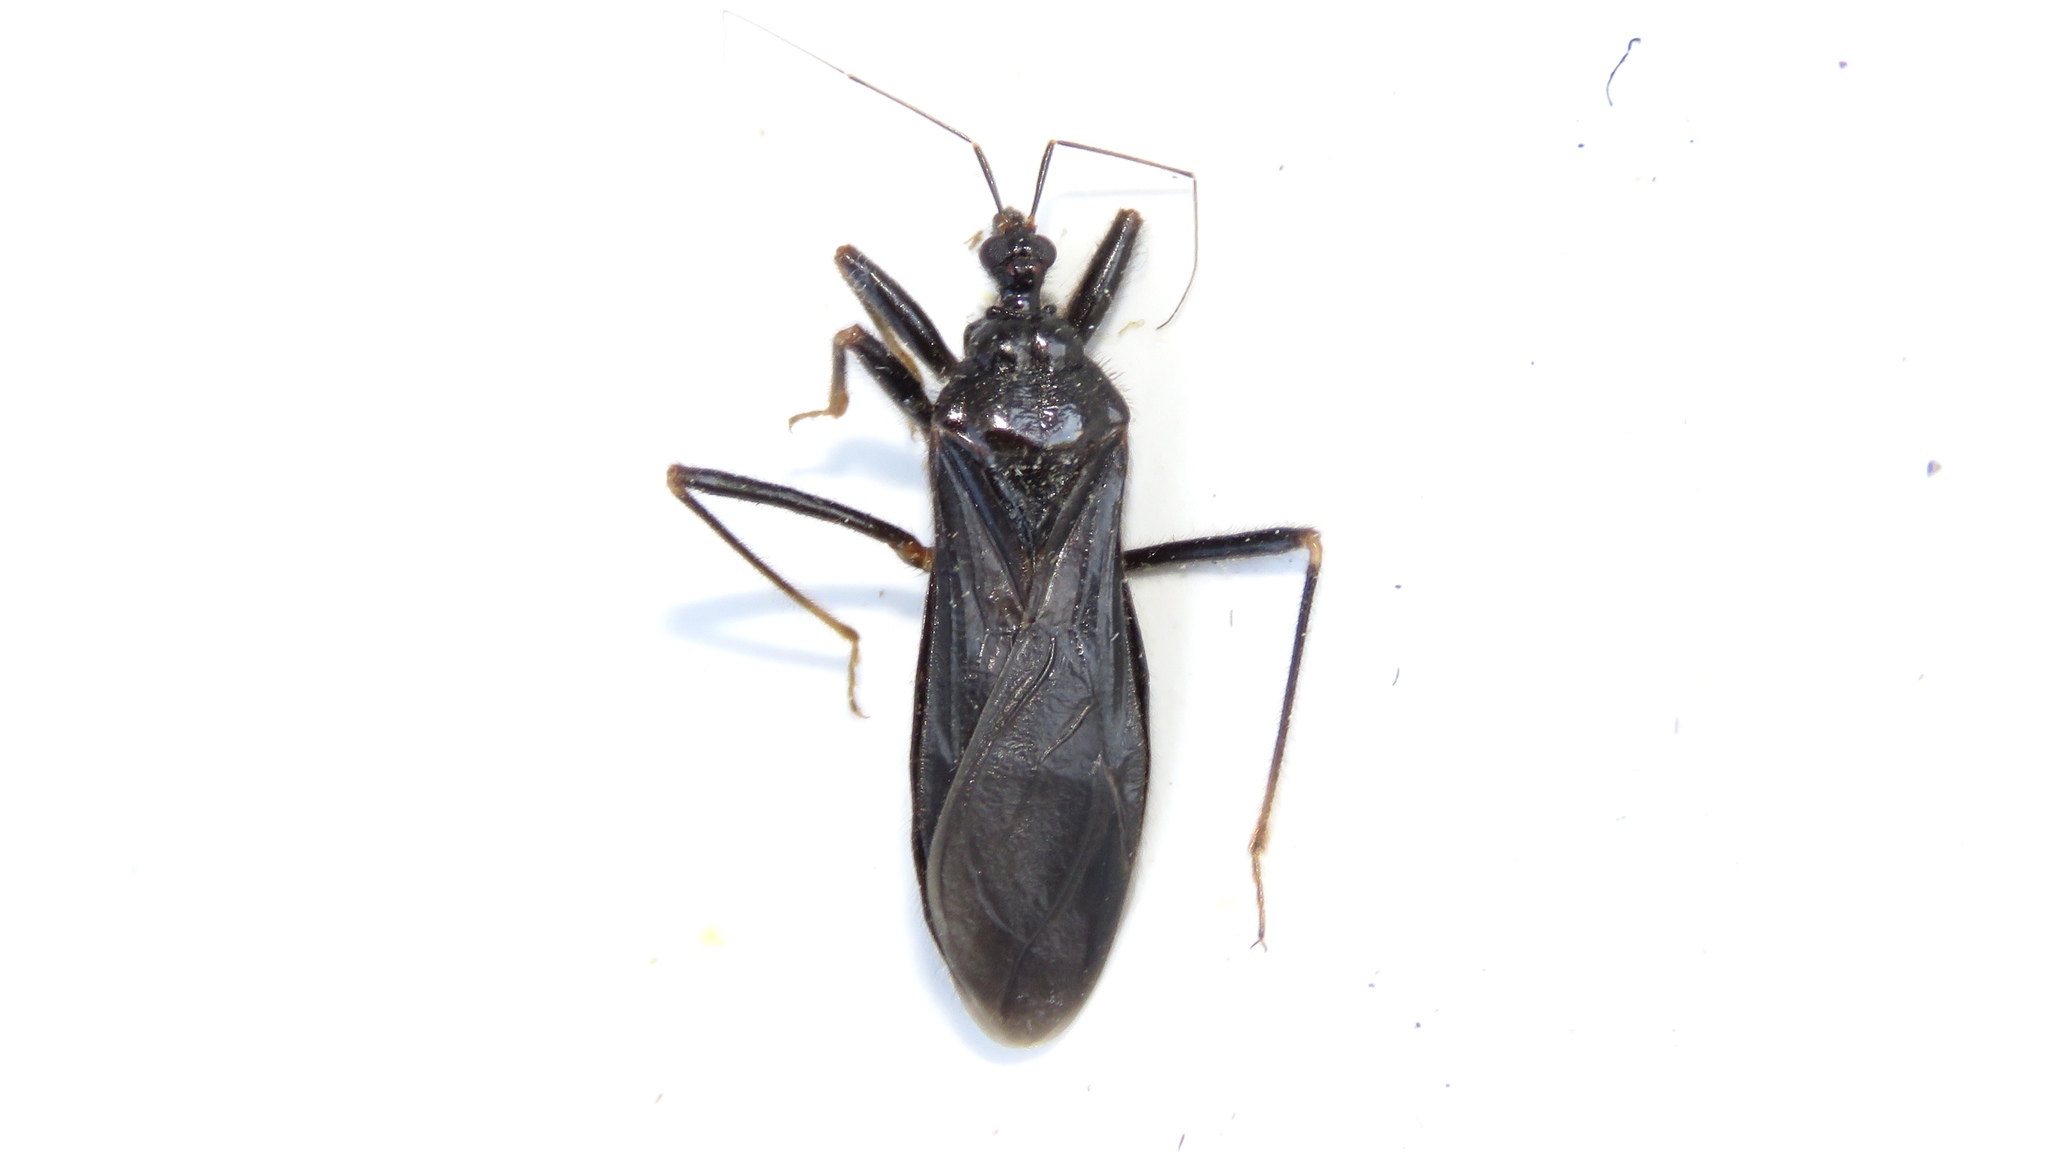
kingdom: Animalia
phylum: Arthropoda
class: Insecta
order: Hemiptera
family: Reduviidae
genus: Reduvius
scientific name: Reduvius personatus
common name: Masked hunter
